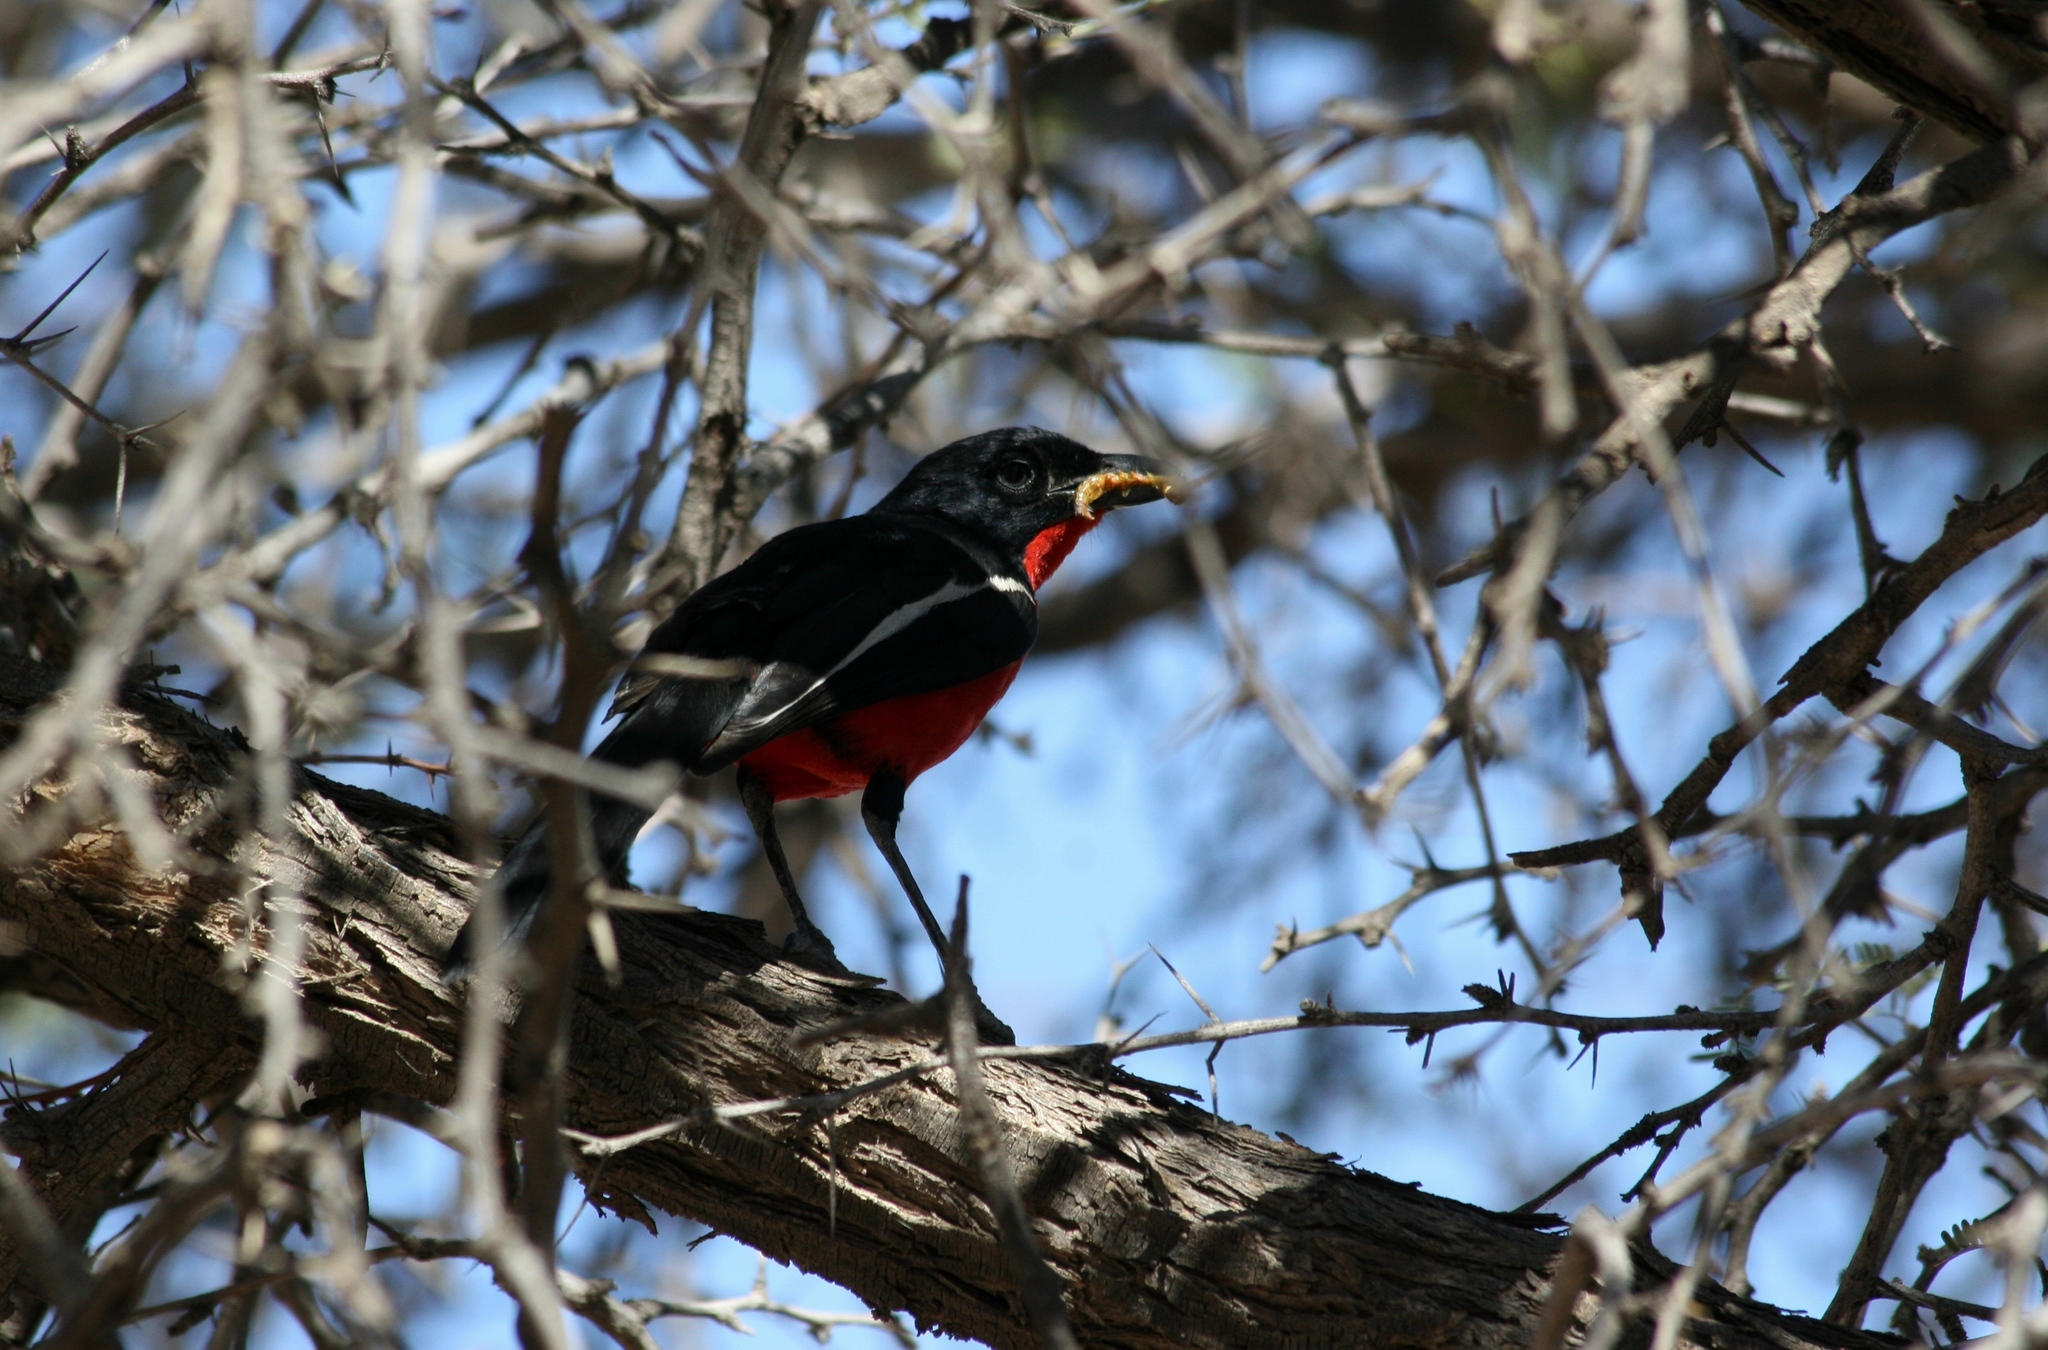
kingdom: Animalia
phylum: Chordata
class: Aves
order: Passeriformes
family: Malaconotidae
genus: Laniarius
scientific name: Laniarius atrococcineus
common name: Crimson-breasted shrike
